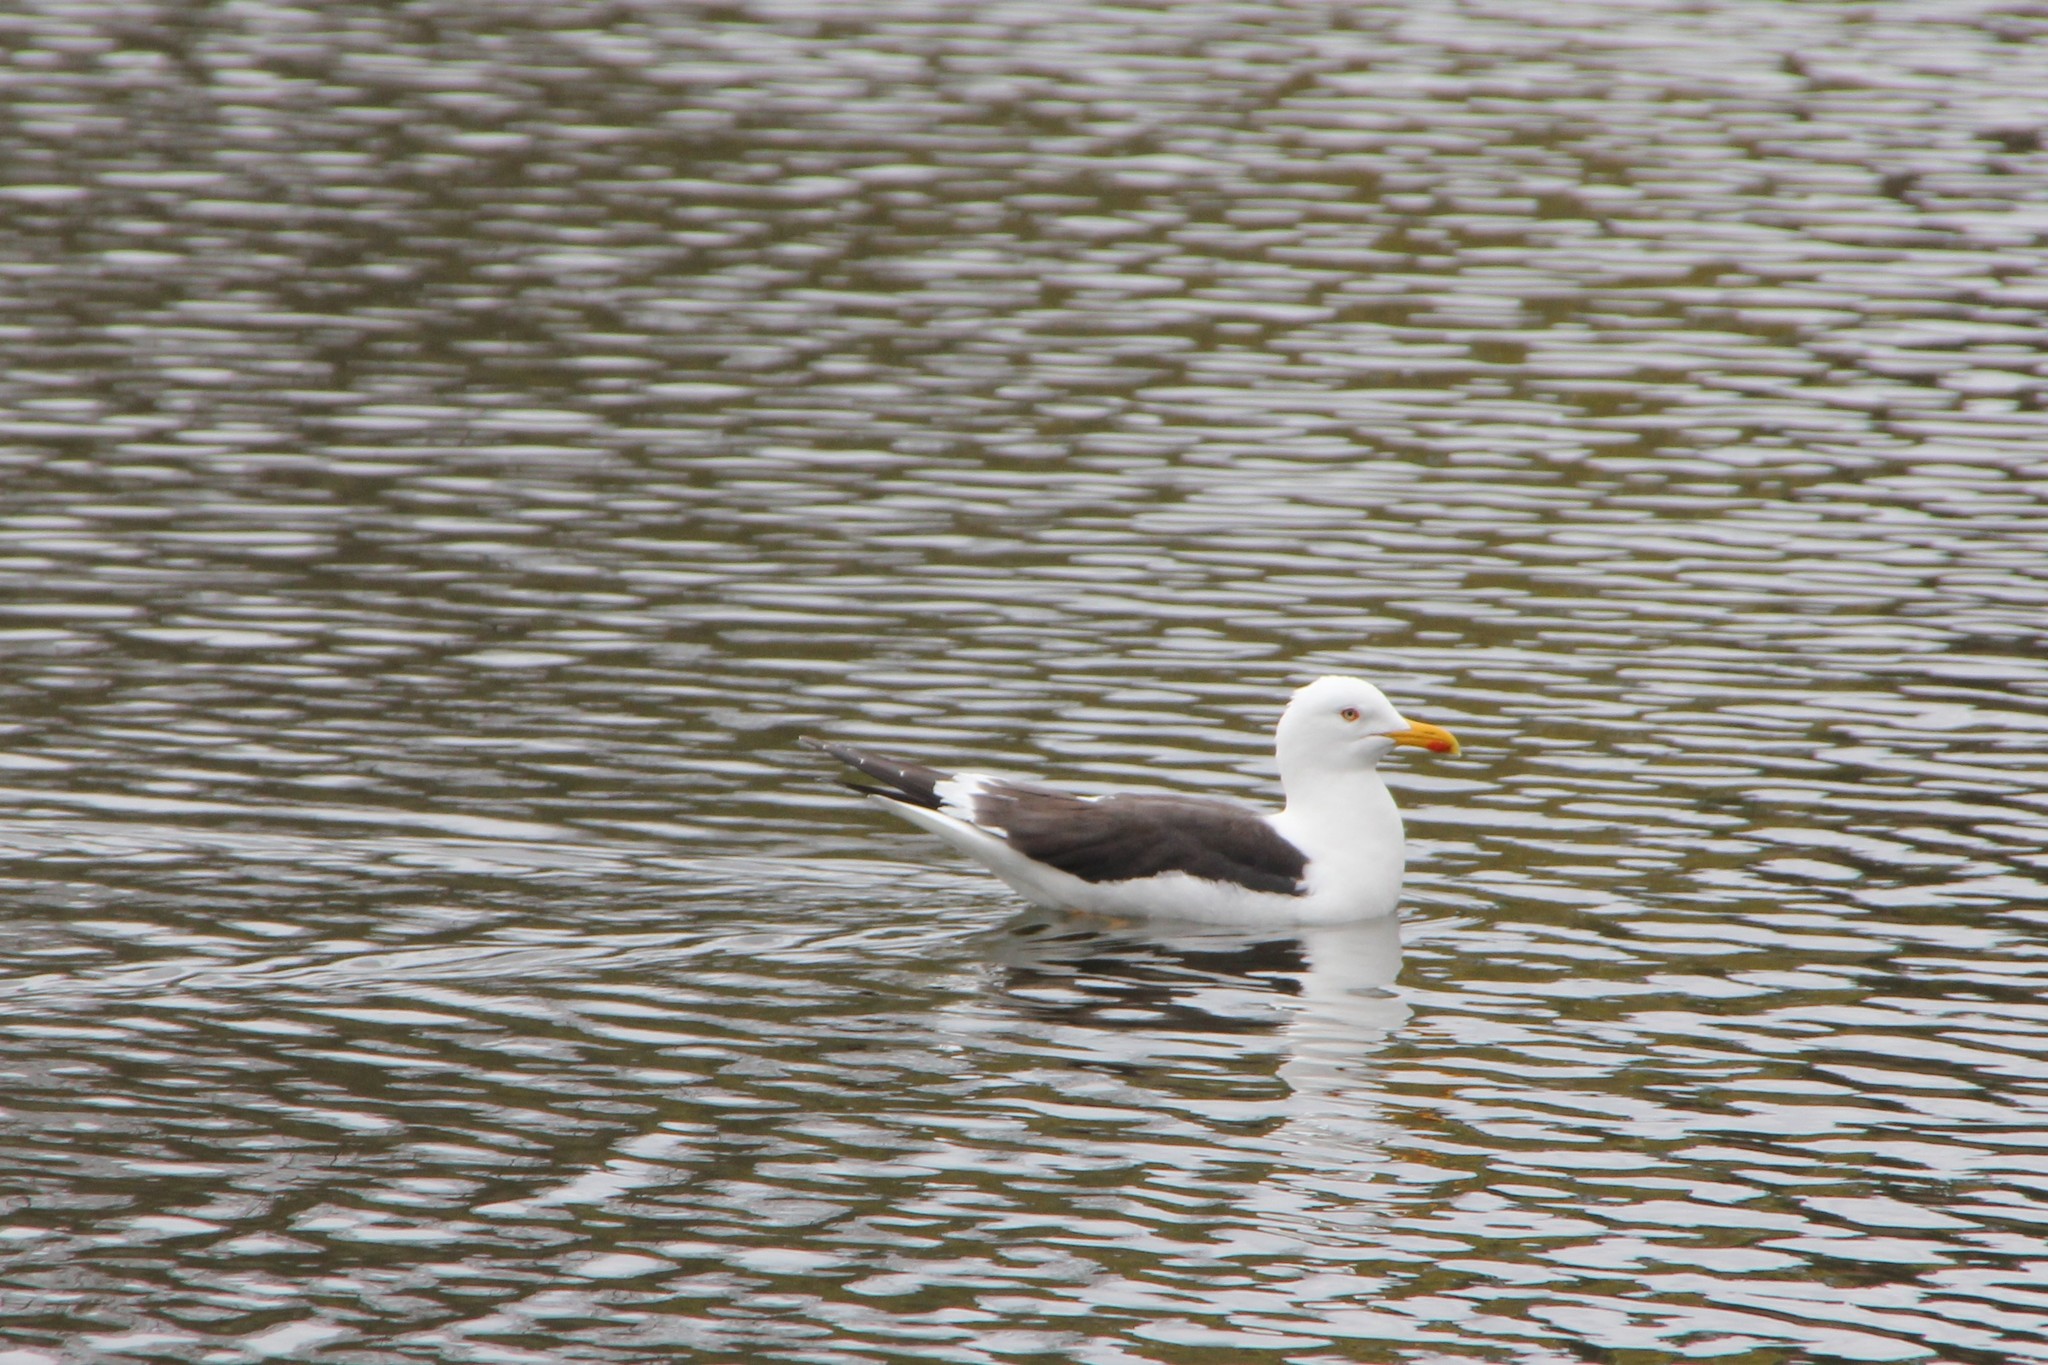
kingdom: Animalia
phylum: Chordata
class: Aves
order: Charadriiformes
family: Laridae
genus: Larus
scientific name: Larus fuscus
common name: Lesser black-backed gull
